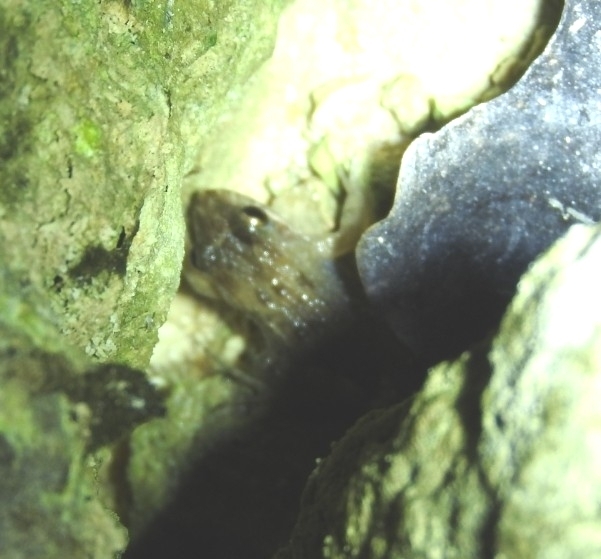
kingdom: Animalia
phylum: Chordata
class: Amphibia
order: Anura
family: Leptodactylidae
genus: Leptodactylus
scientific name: Leptodactylus melanonotus
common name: Fringe-toed foamfrog
